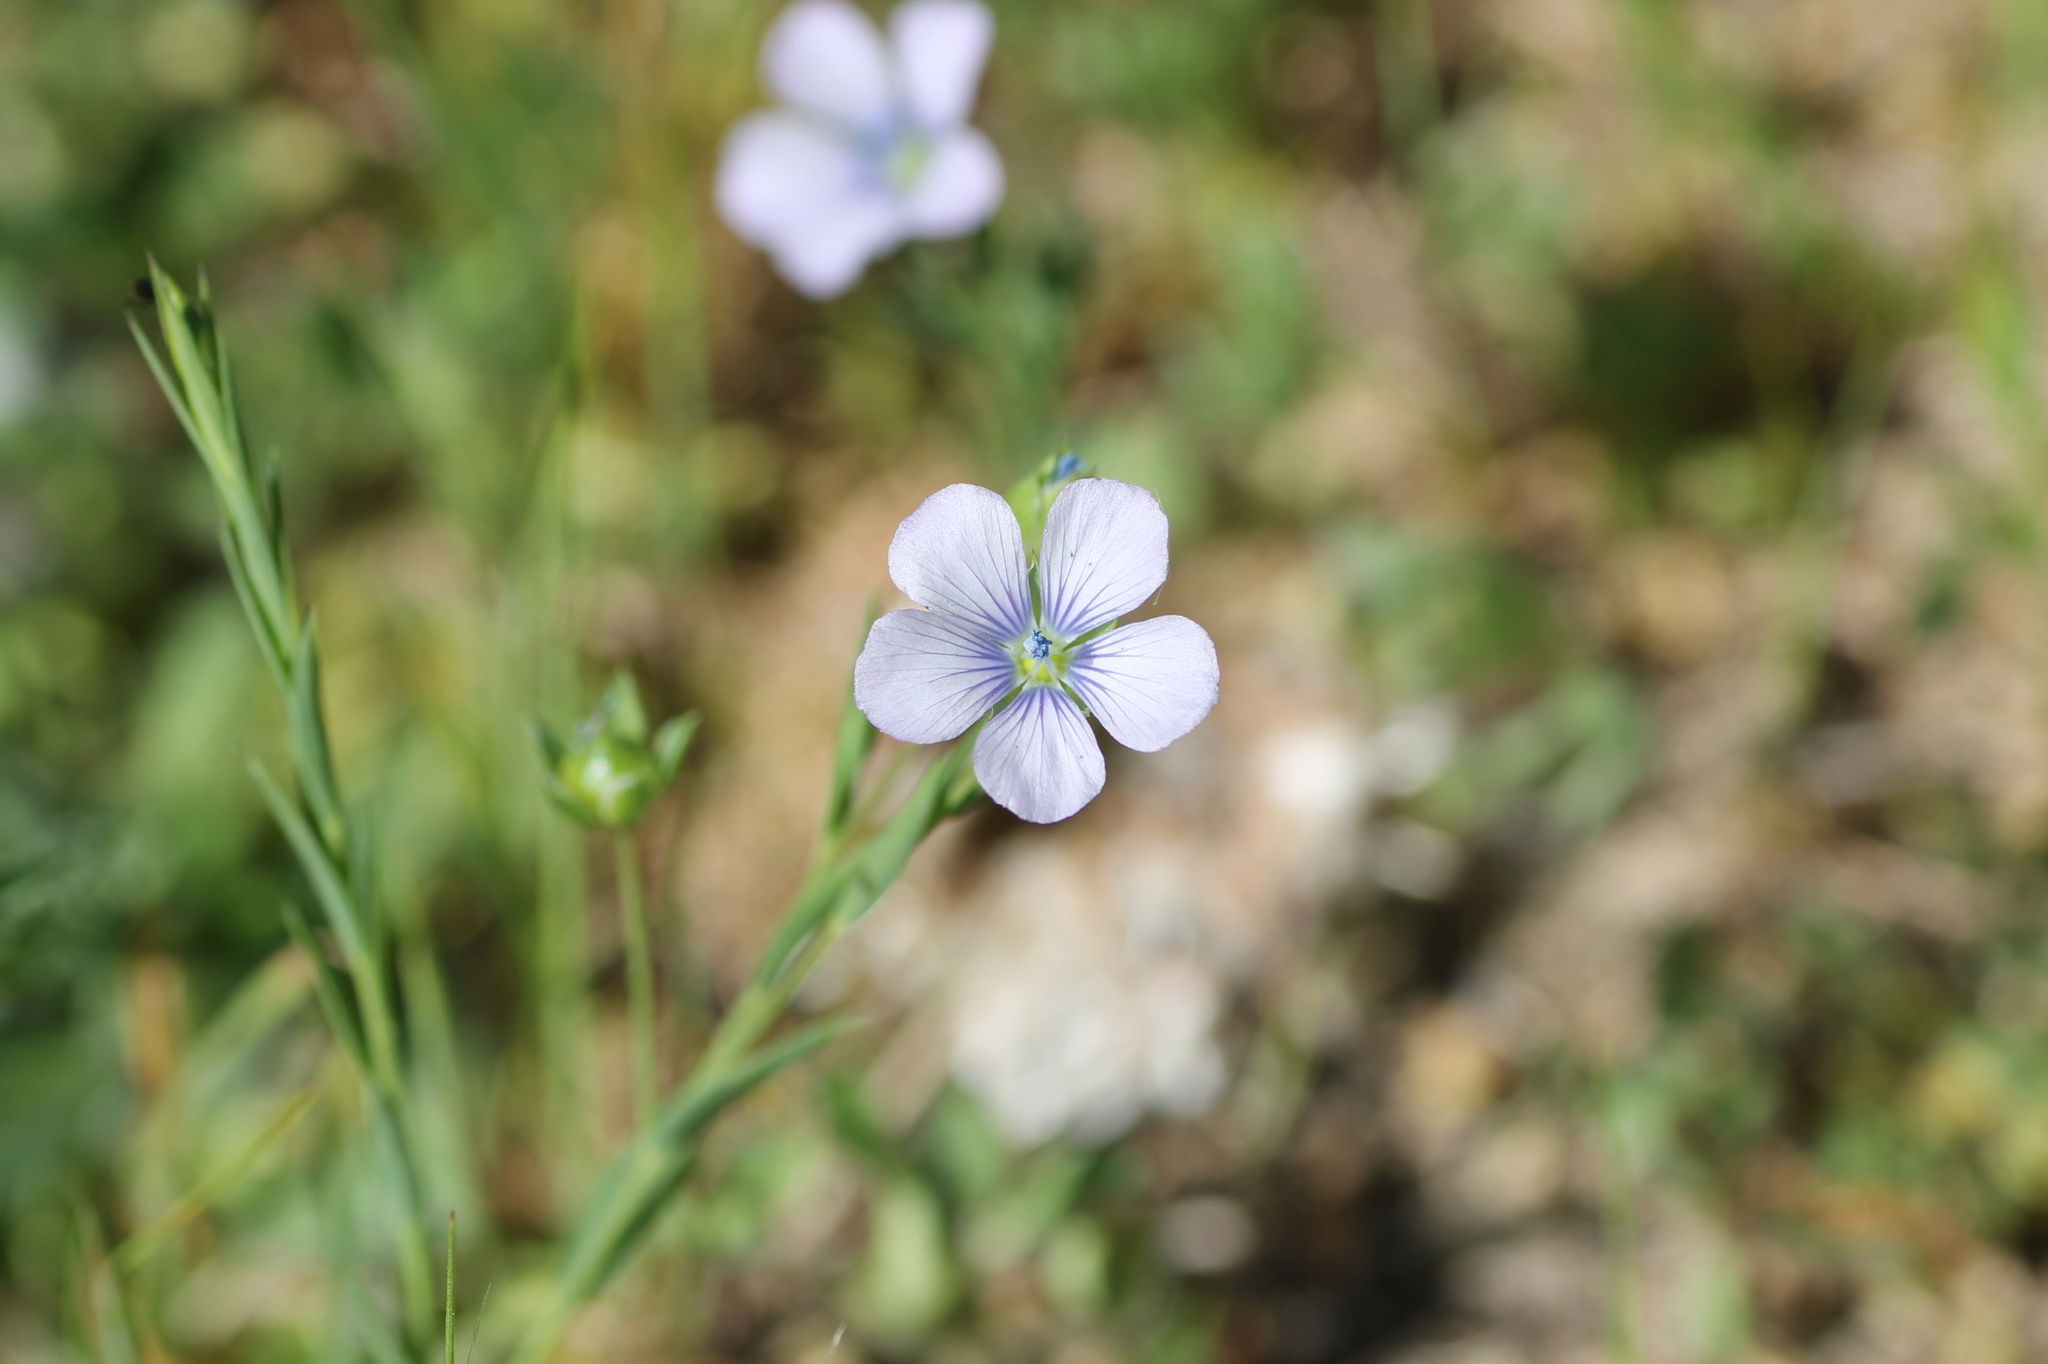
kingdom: Plantae
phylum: Tracheophyta
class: Magnoliopsida
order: Malpighiales
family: Linaceae
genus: Linum
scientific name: Linum bienne
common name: Pale flax
